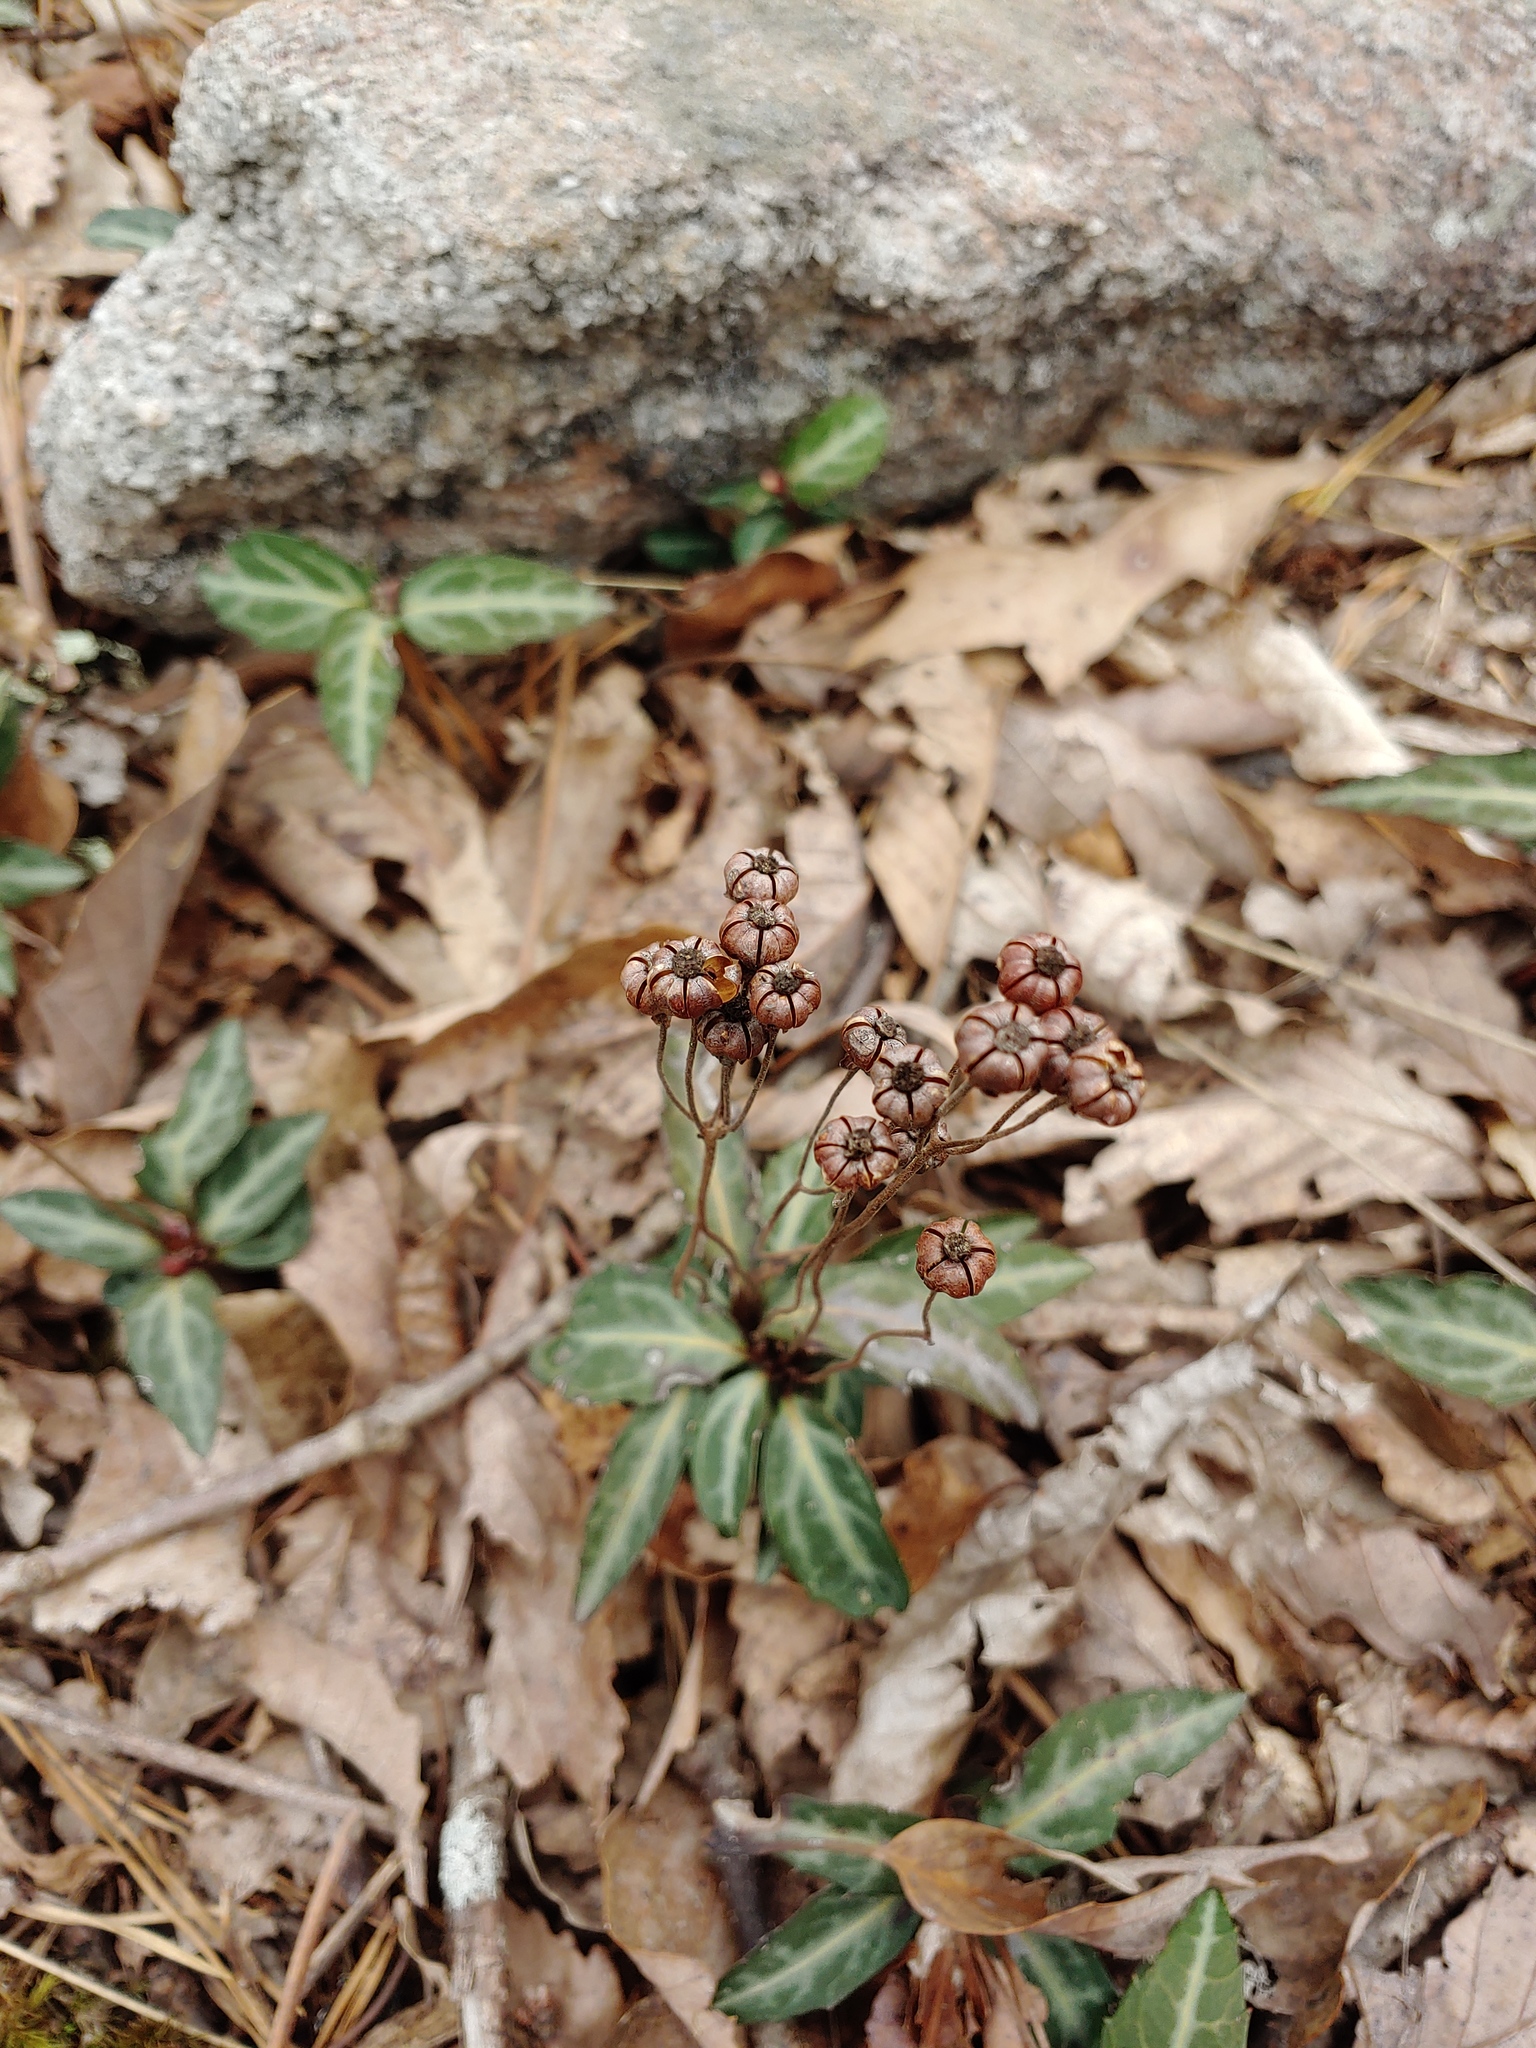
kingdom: Plantae
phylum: Tracheophyta
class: Magnoliopsida
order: Ericales
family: Ericaceae
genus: Chimaphila
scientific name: Chimaphila maculata
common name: Spotted pipsissewa
